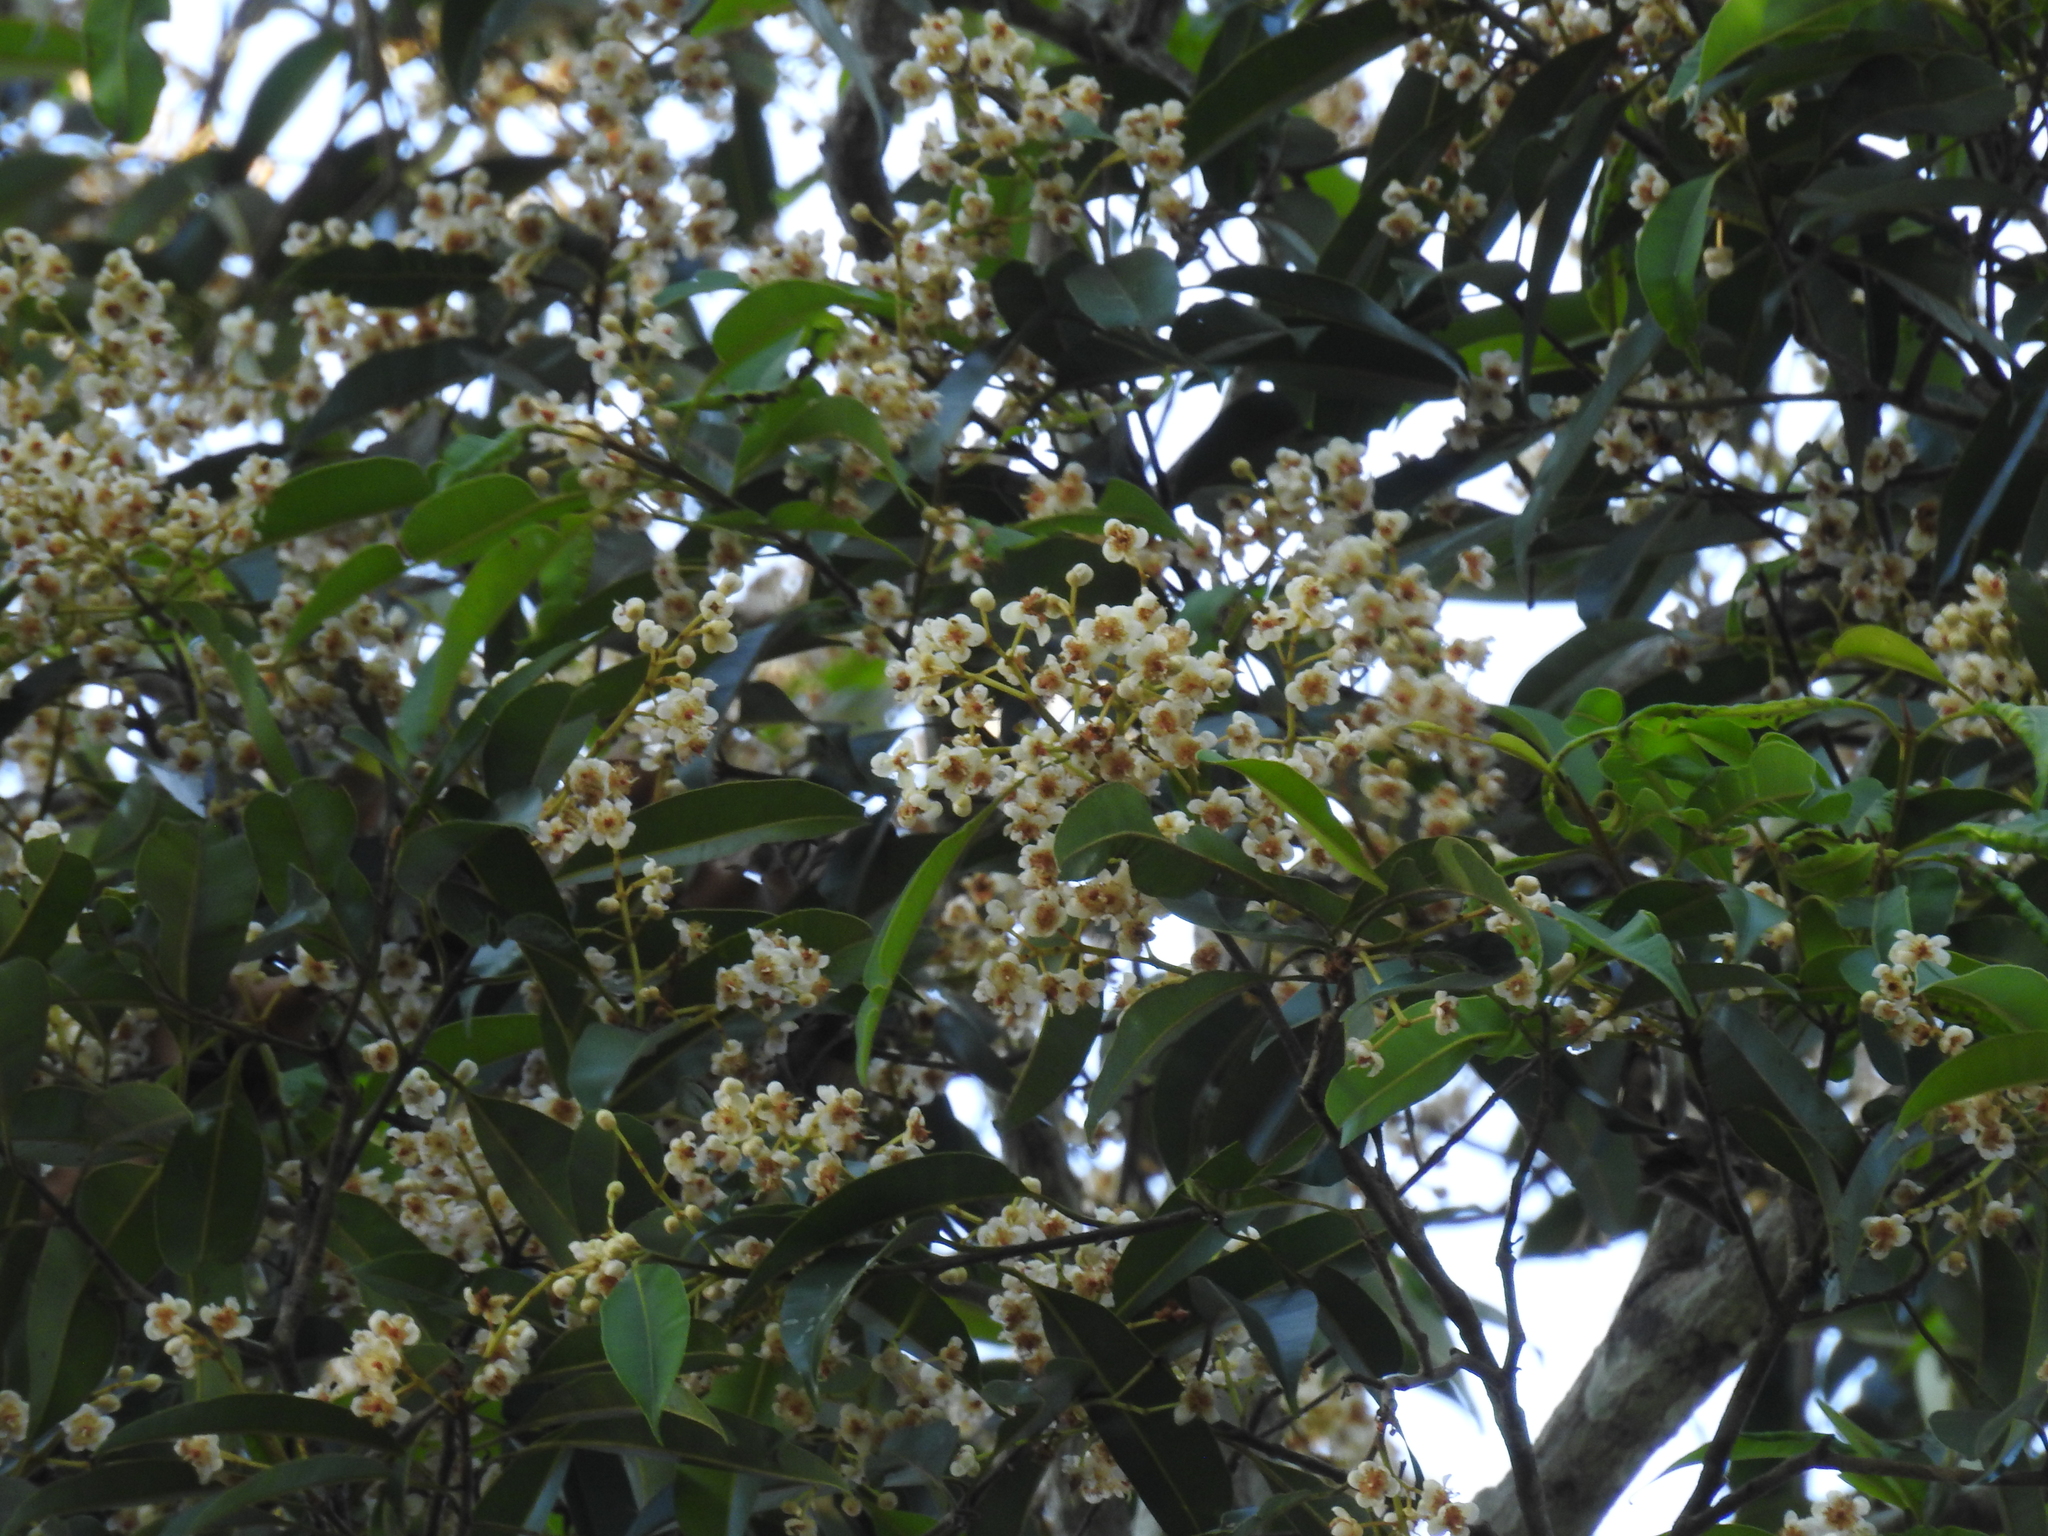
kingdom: Plantae
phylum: Tracheophyta
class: Magnoliopsida
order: Malpighiales
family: Calophyllaceae
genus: Calophyllum
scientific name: Calophyllum polyanthum
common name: Poonspar
